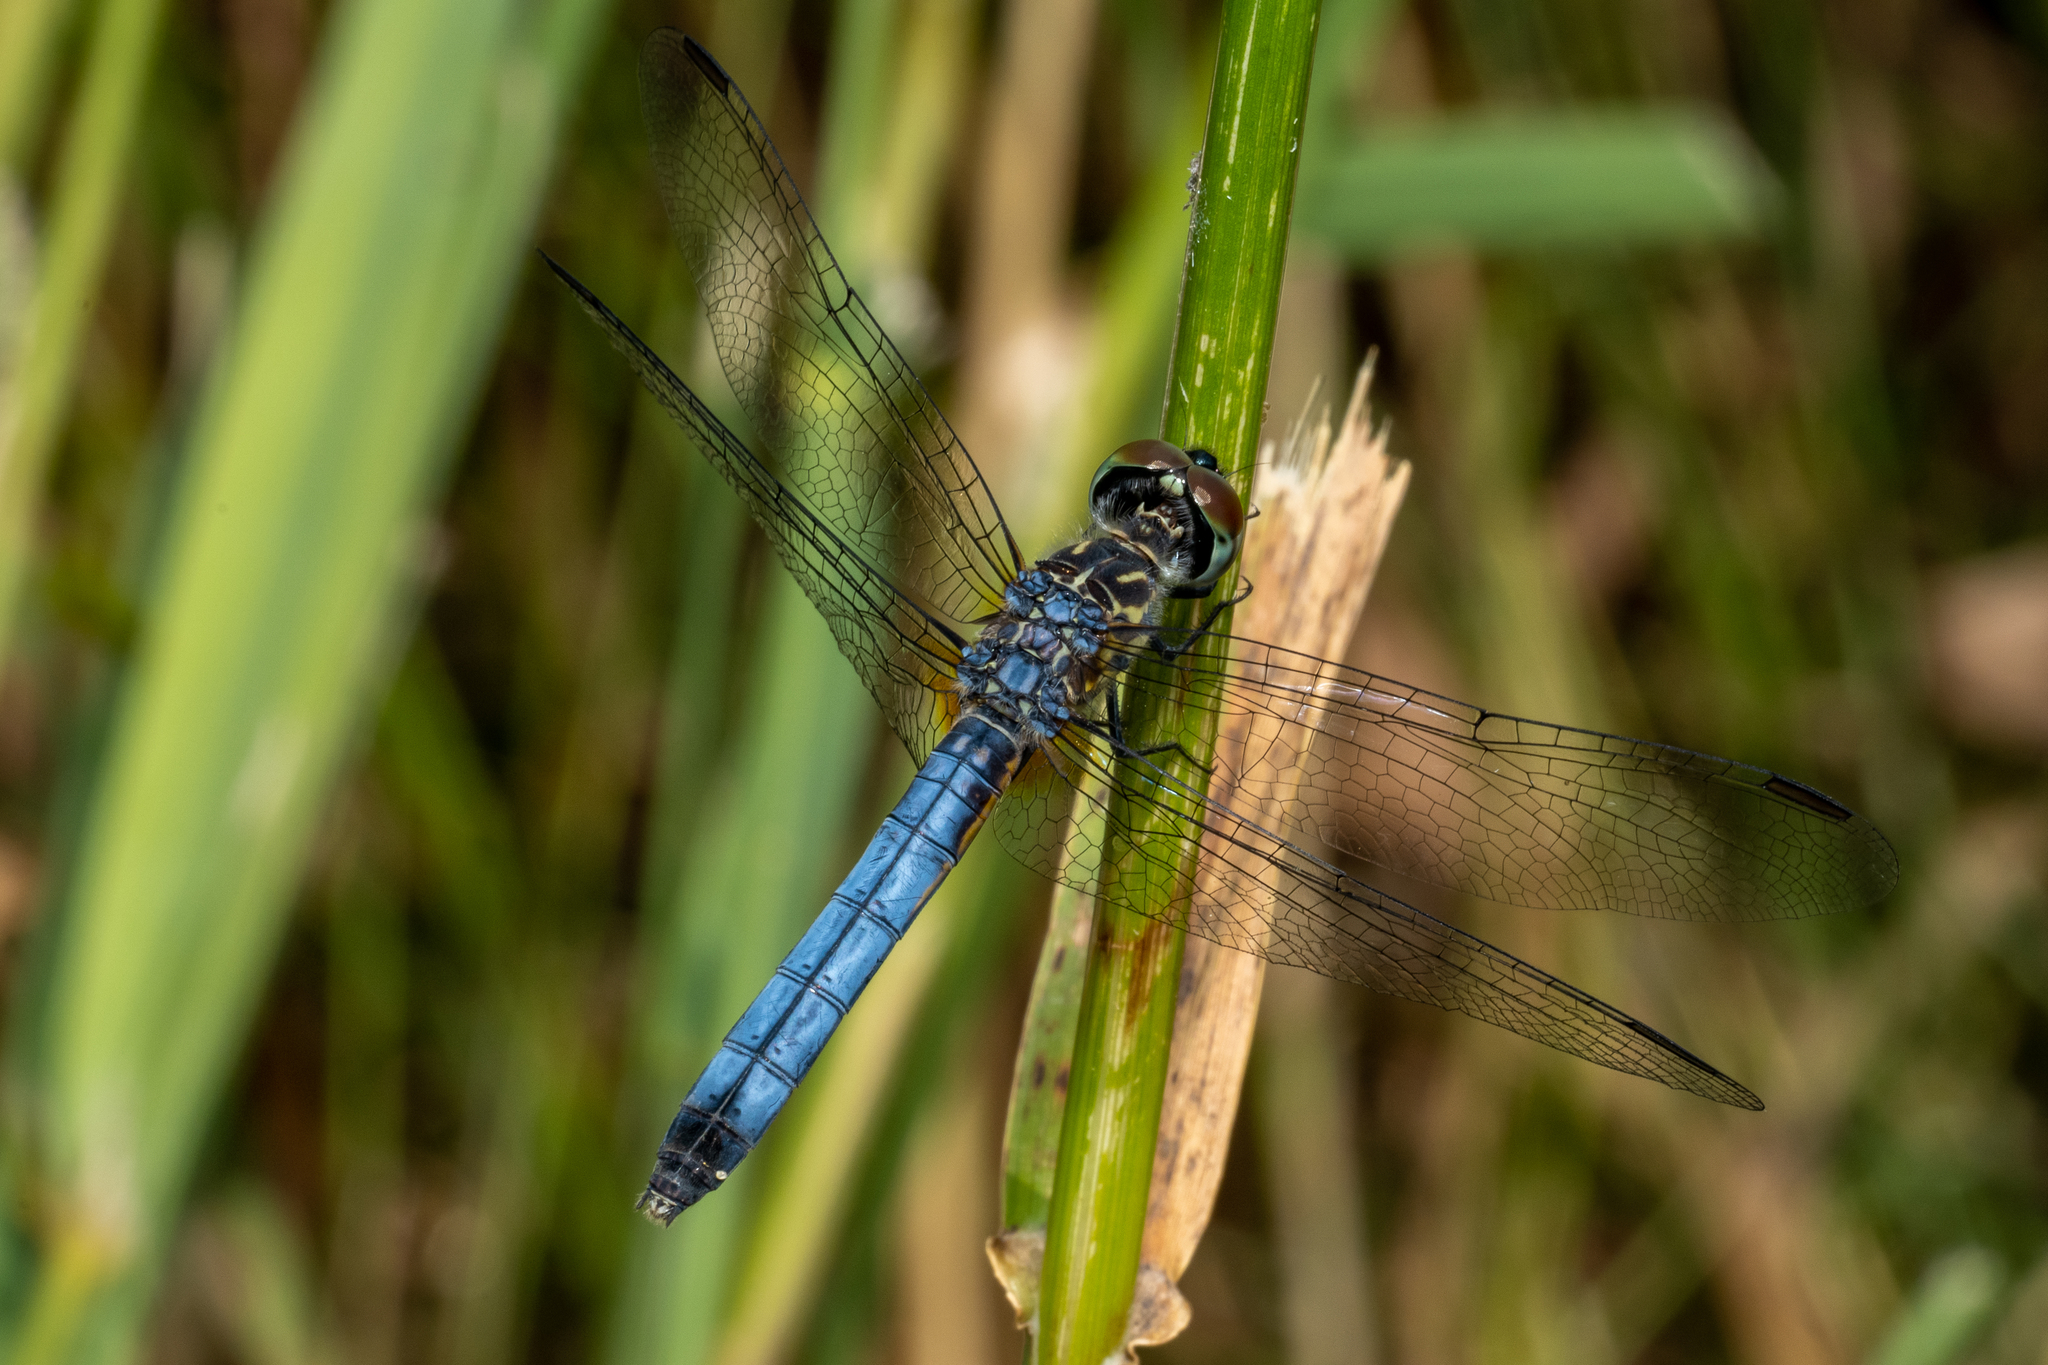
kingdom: Animalia
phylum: Arthropoda
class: Insecta
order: Odonata
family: Libellulidae
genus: Pachydiplax
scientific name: Pachydiplax longipennis
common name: Blue dasher
